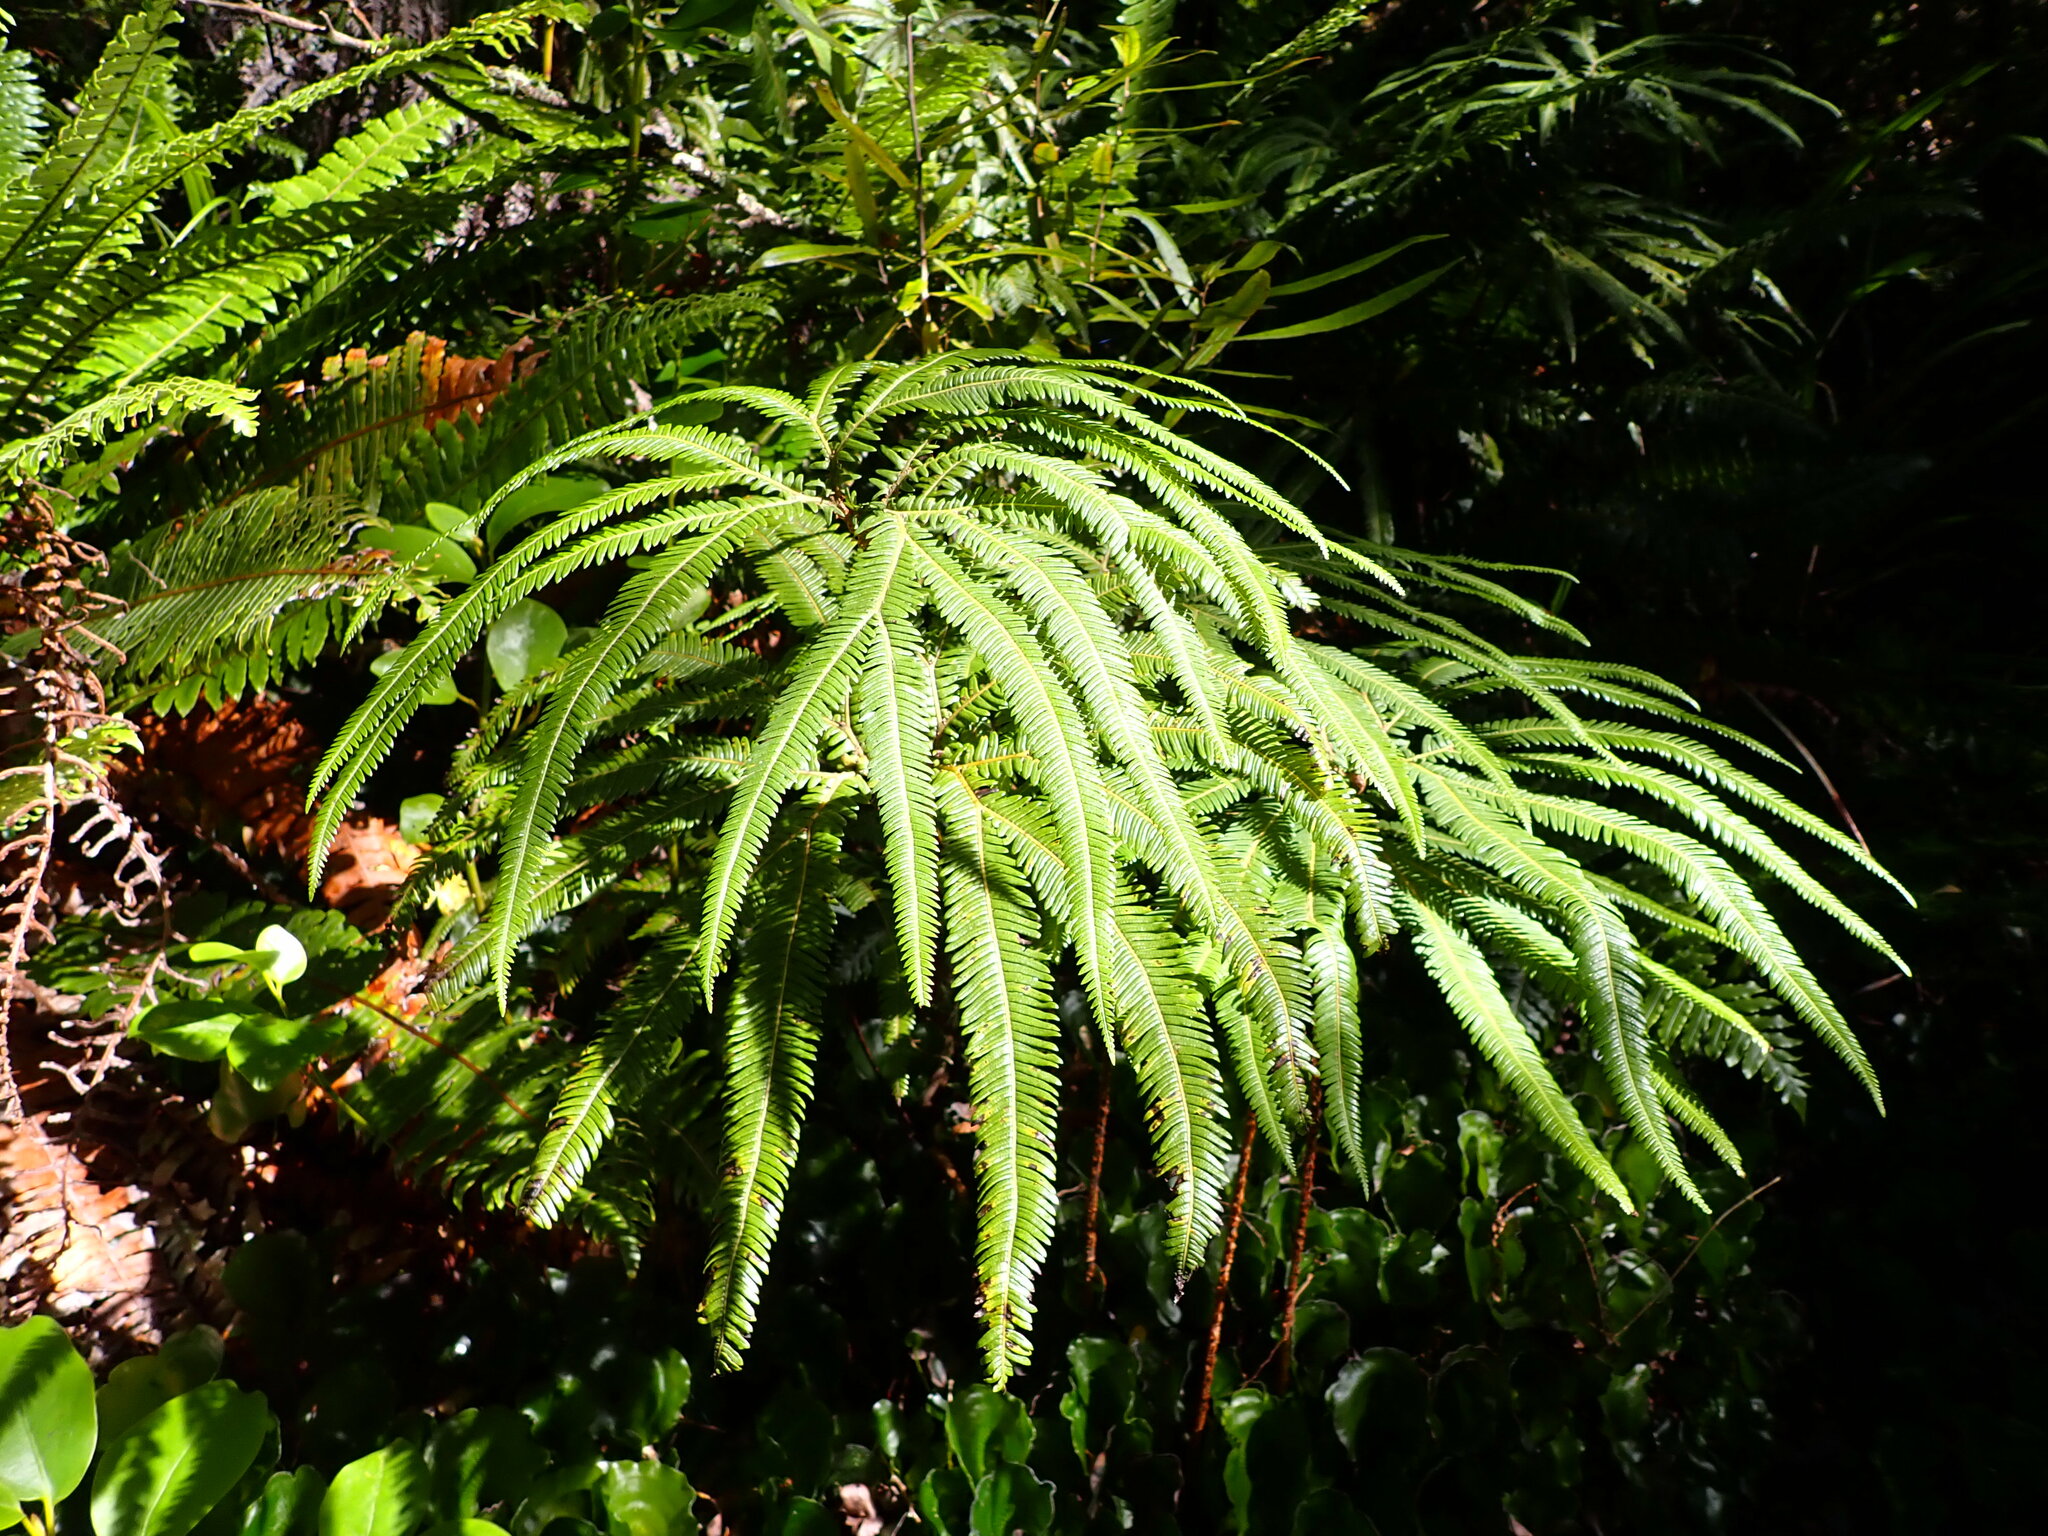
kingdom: Plantae
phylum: Tracheophyta
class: Polypodiopsida
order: Gleicheniales
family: Gleicheniaceae
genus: Sticherus
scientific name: Sticherus cunninghamii
